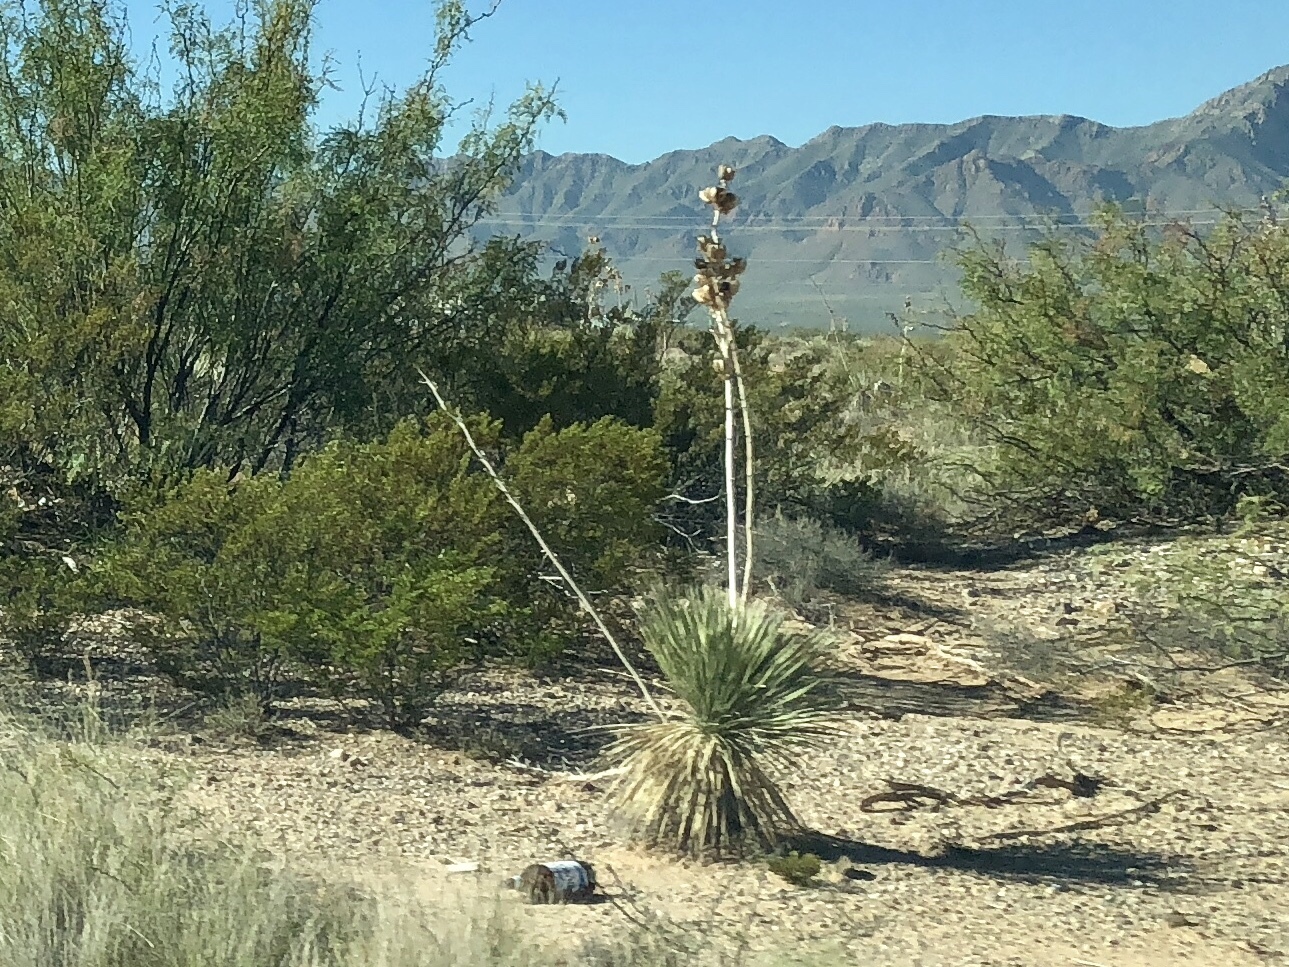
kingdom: Plantae
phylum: Tracheophyta
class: Liliopsida
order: Asparagales
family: Asparagaceae
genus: Yucca
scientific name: Yucca elata
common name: Palmella
